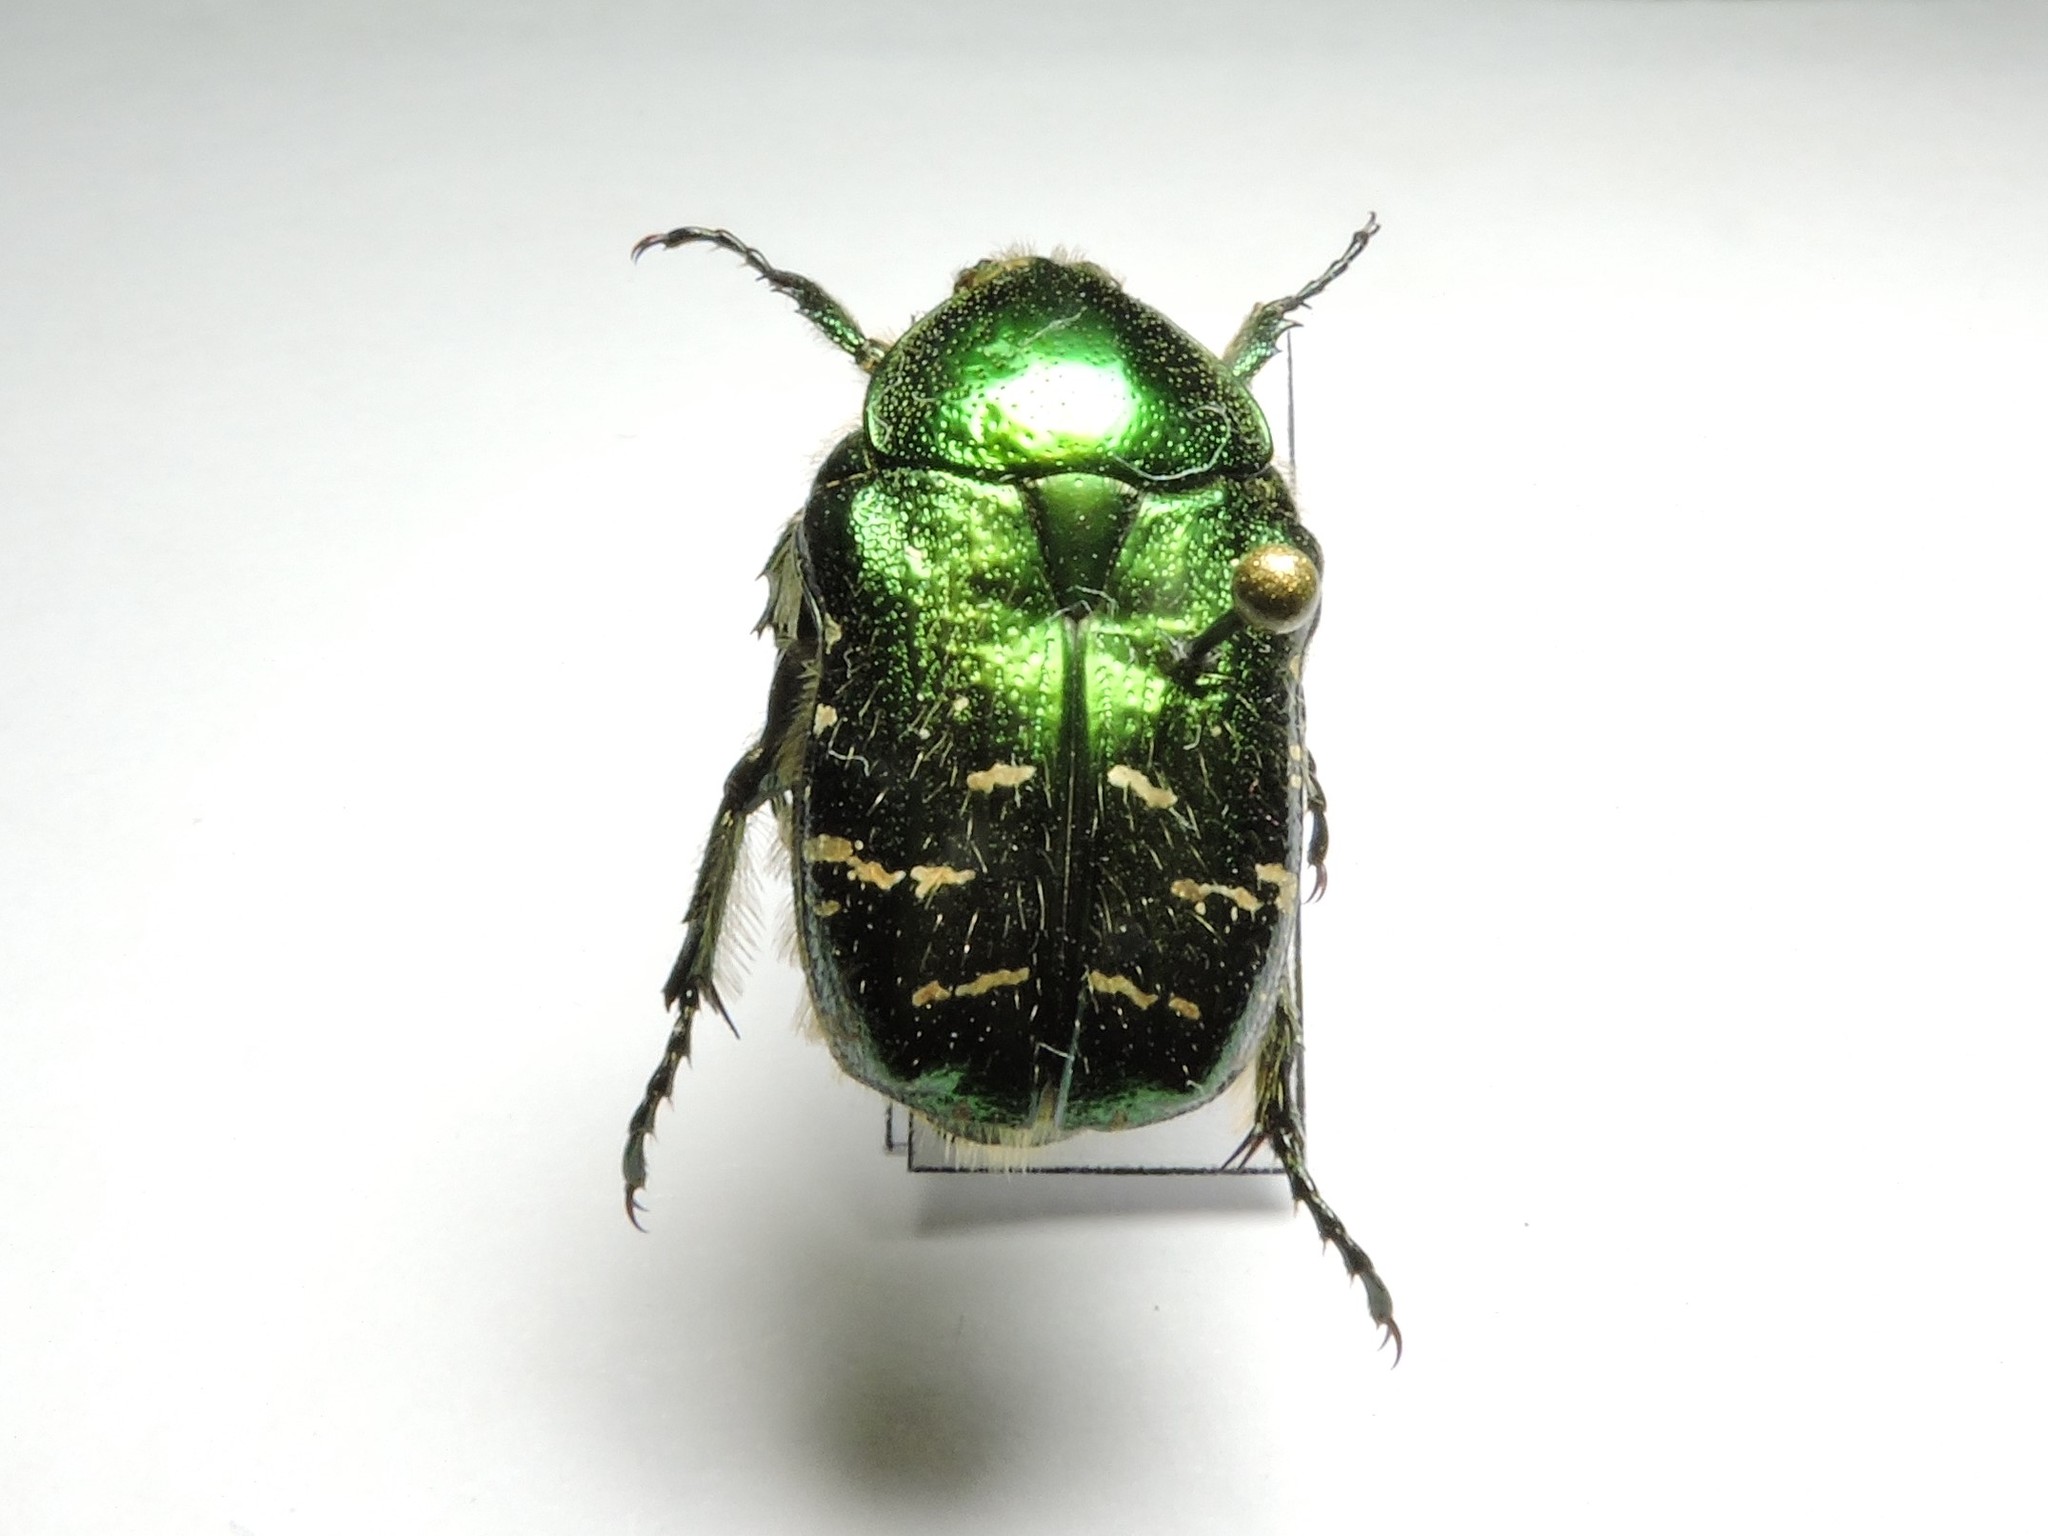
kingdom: Animalia
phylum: Arthropoda
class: Insecta
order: Coleoptera
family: Scarabaeidae
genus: Cetonia
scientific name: Cetonia aurata
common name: Rose chafer
